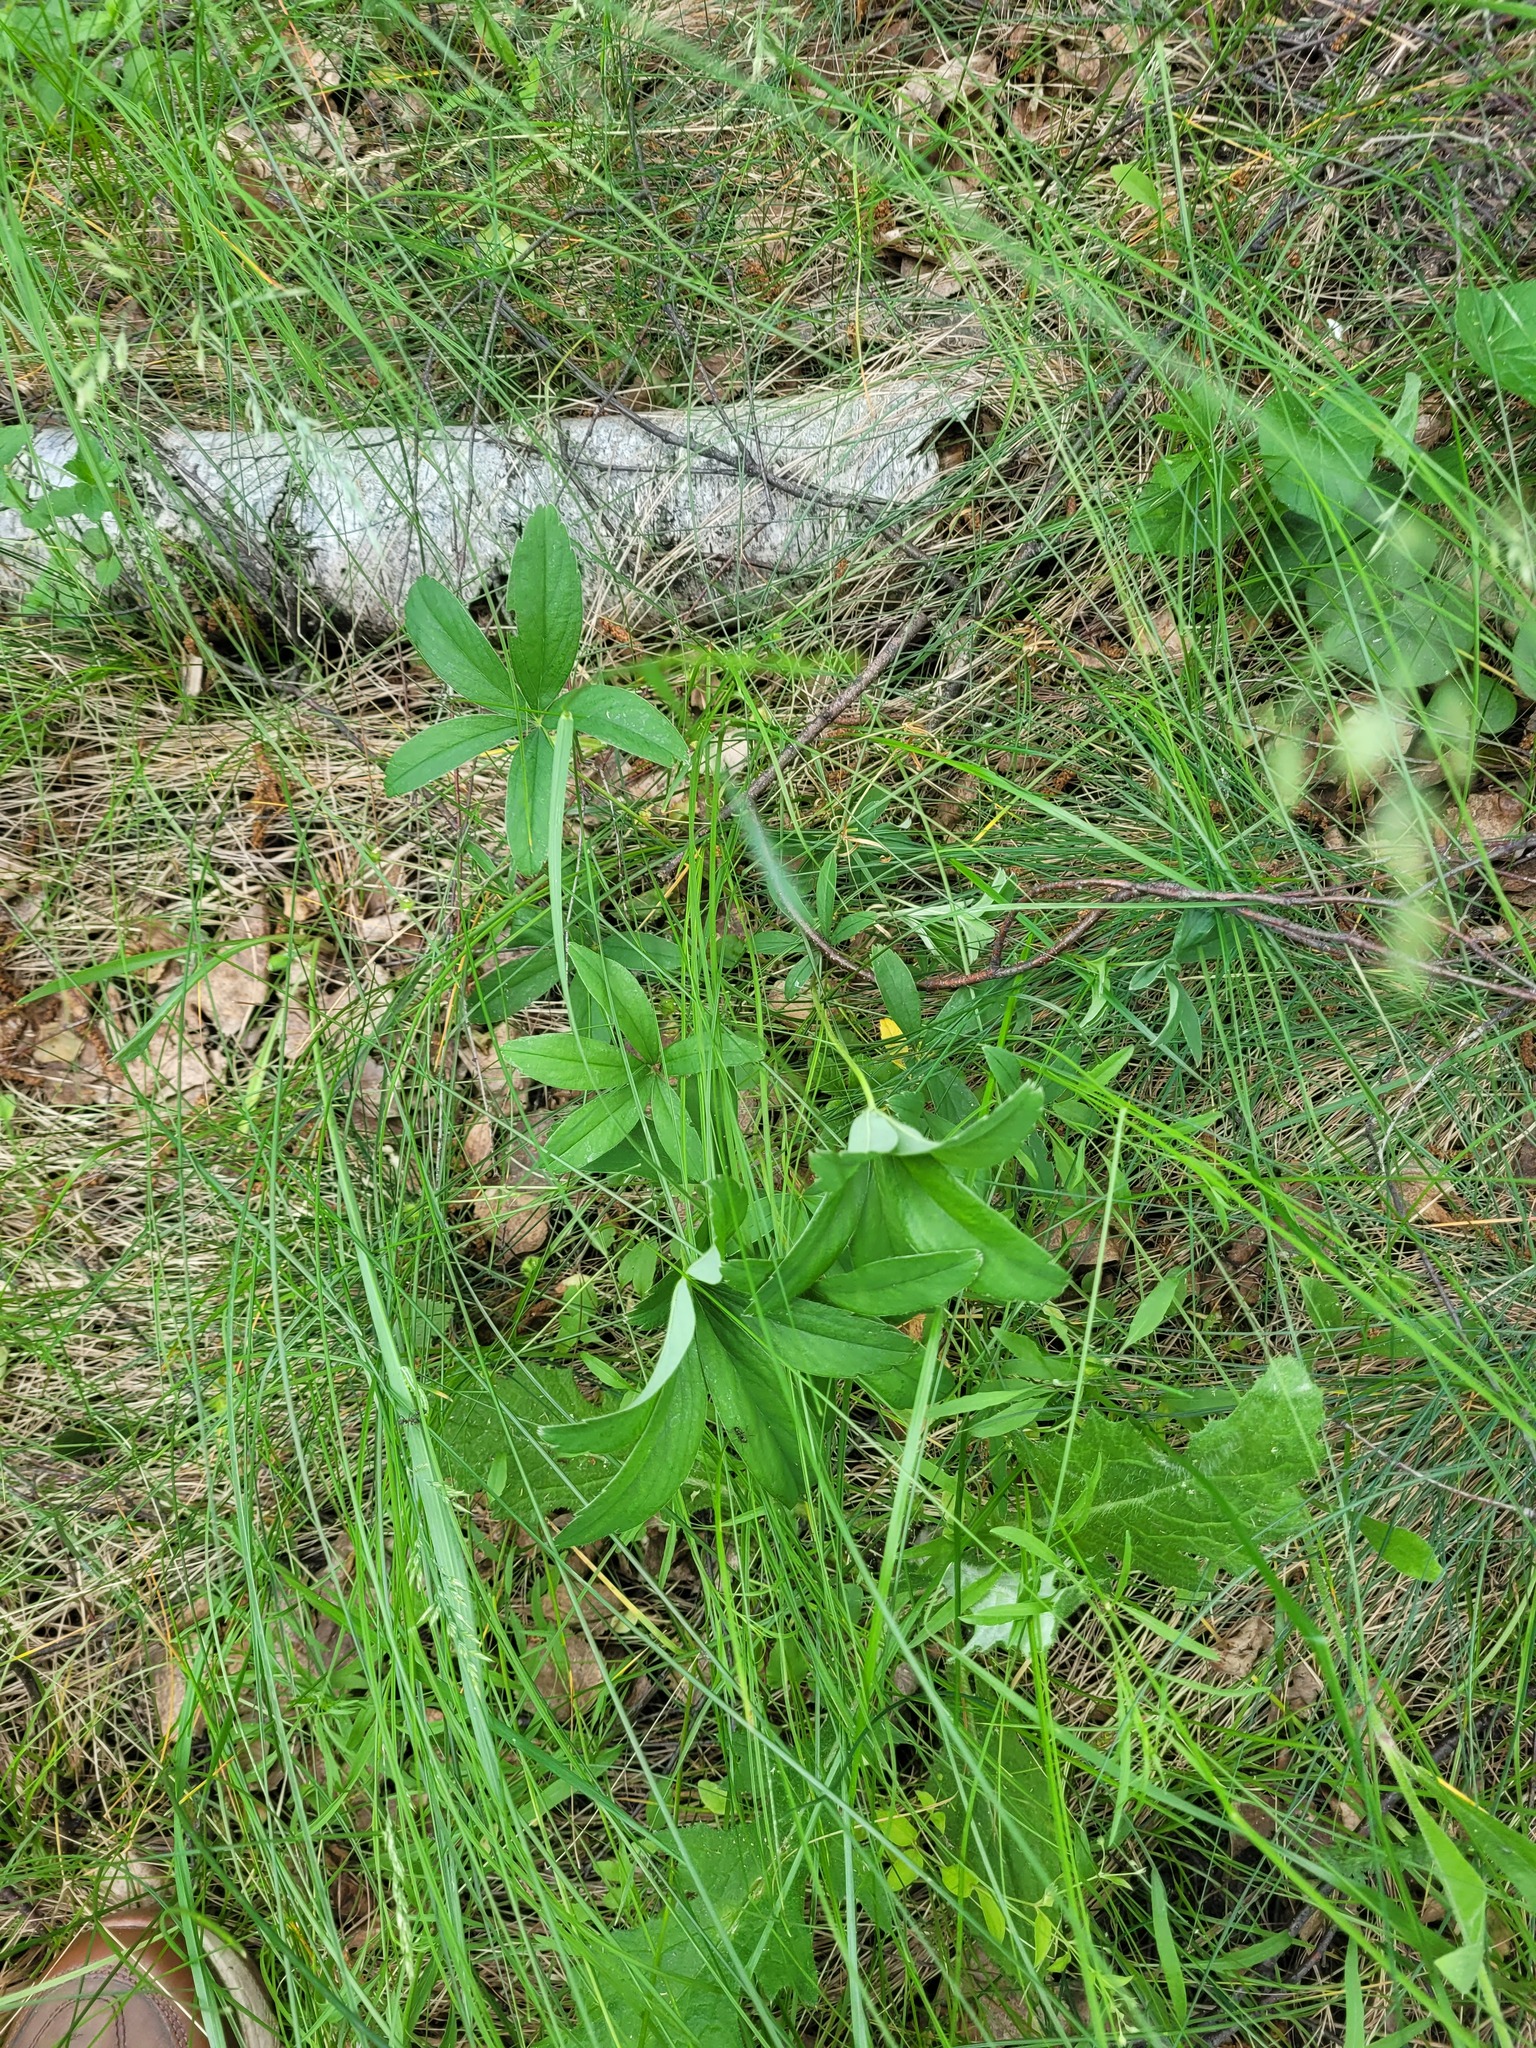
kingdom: Plantae
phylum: Tracheophyta
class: Magnoliopsida
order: Rosales
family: Rosaceae
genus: Potentilla
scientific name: Potentilla alba
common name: White cinquefoil
